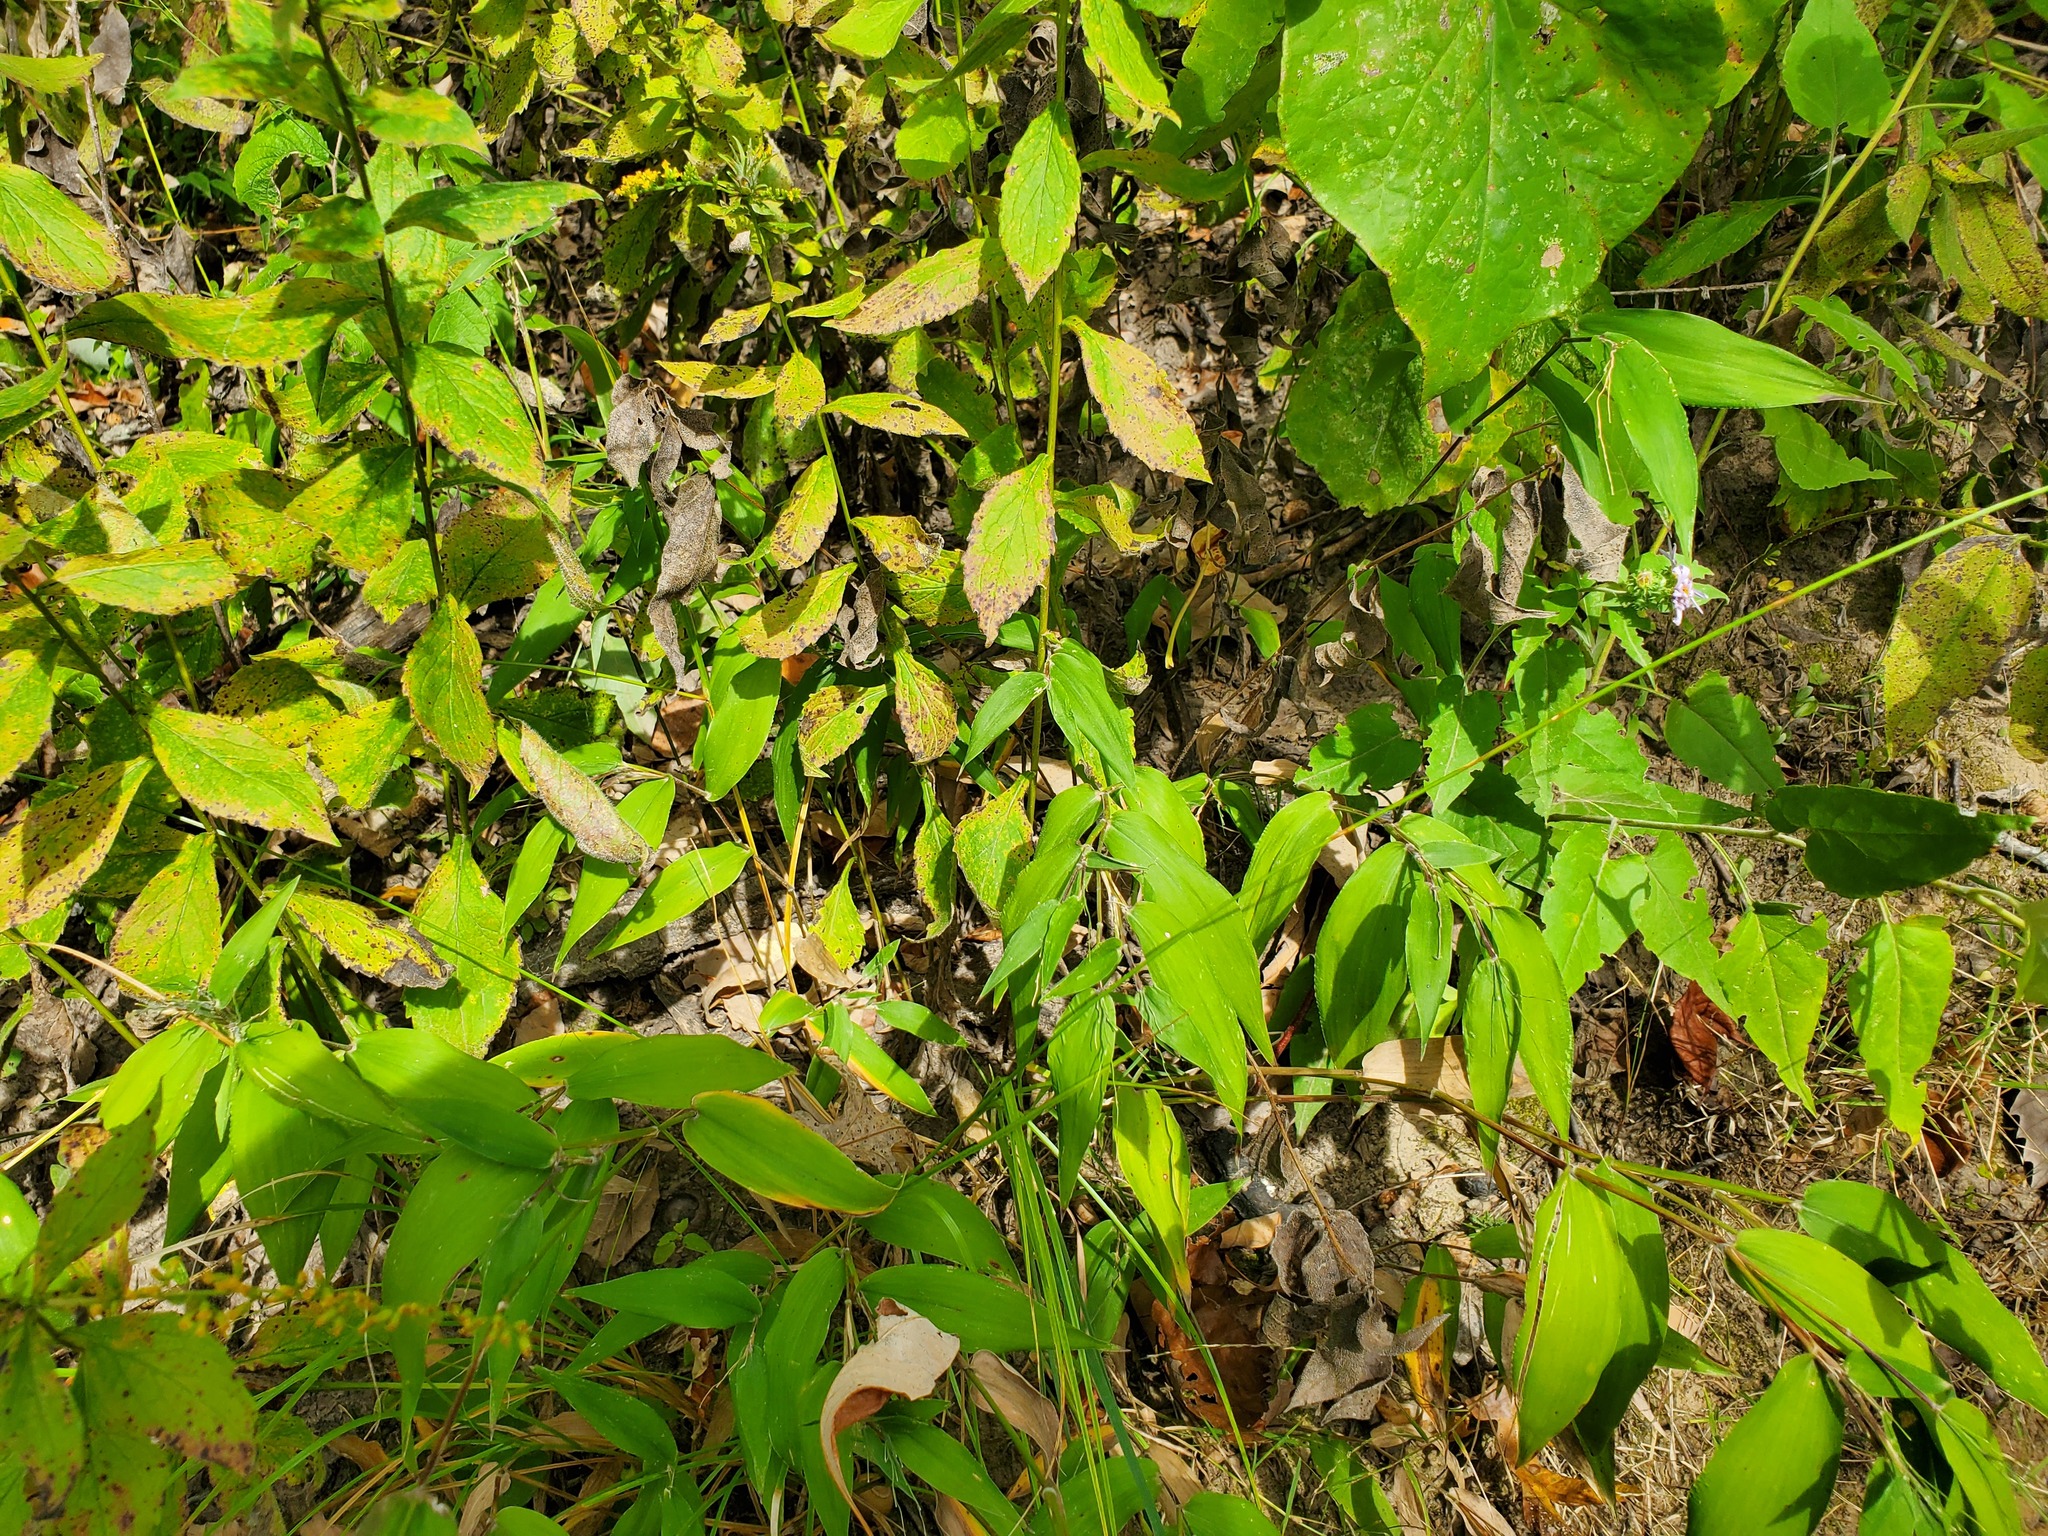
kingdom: Plantae
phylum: Tracheophyta
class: Magnoliopsida
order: Asterales
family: Asteraceae
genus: Solidago
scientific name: Solidago ulmifolia
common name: Elm-leaf goldenrod
